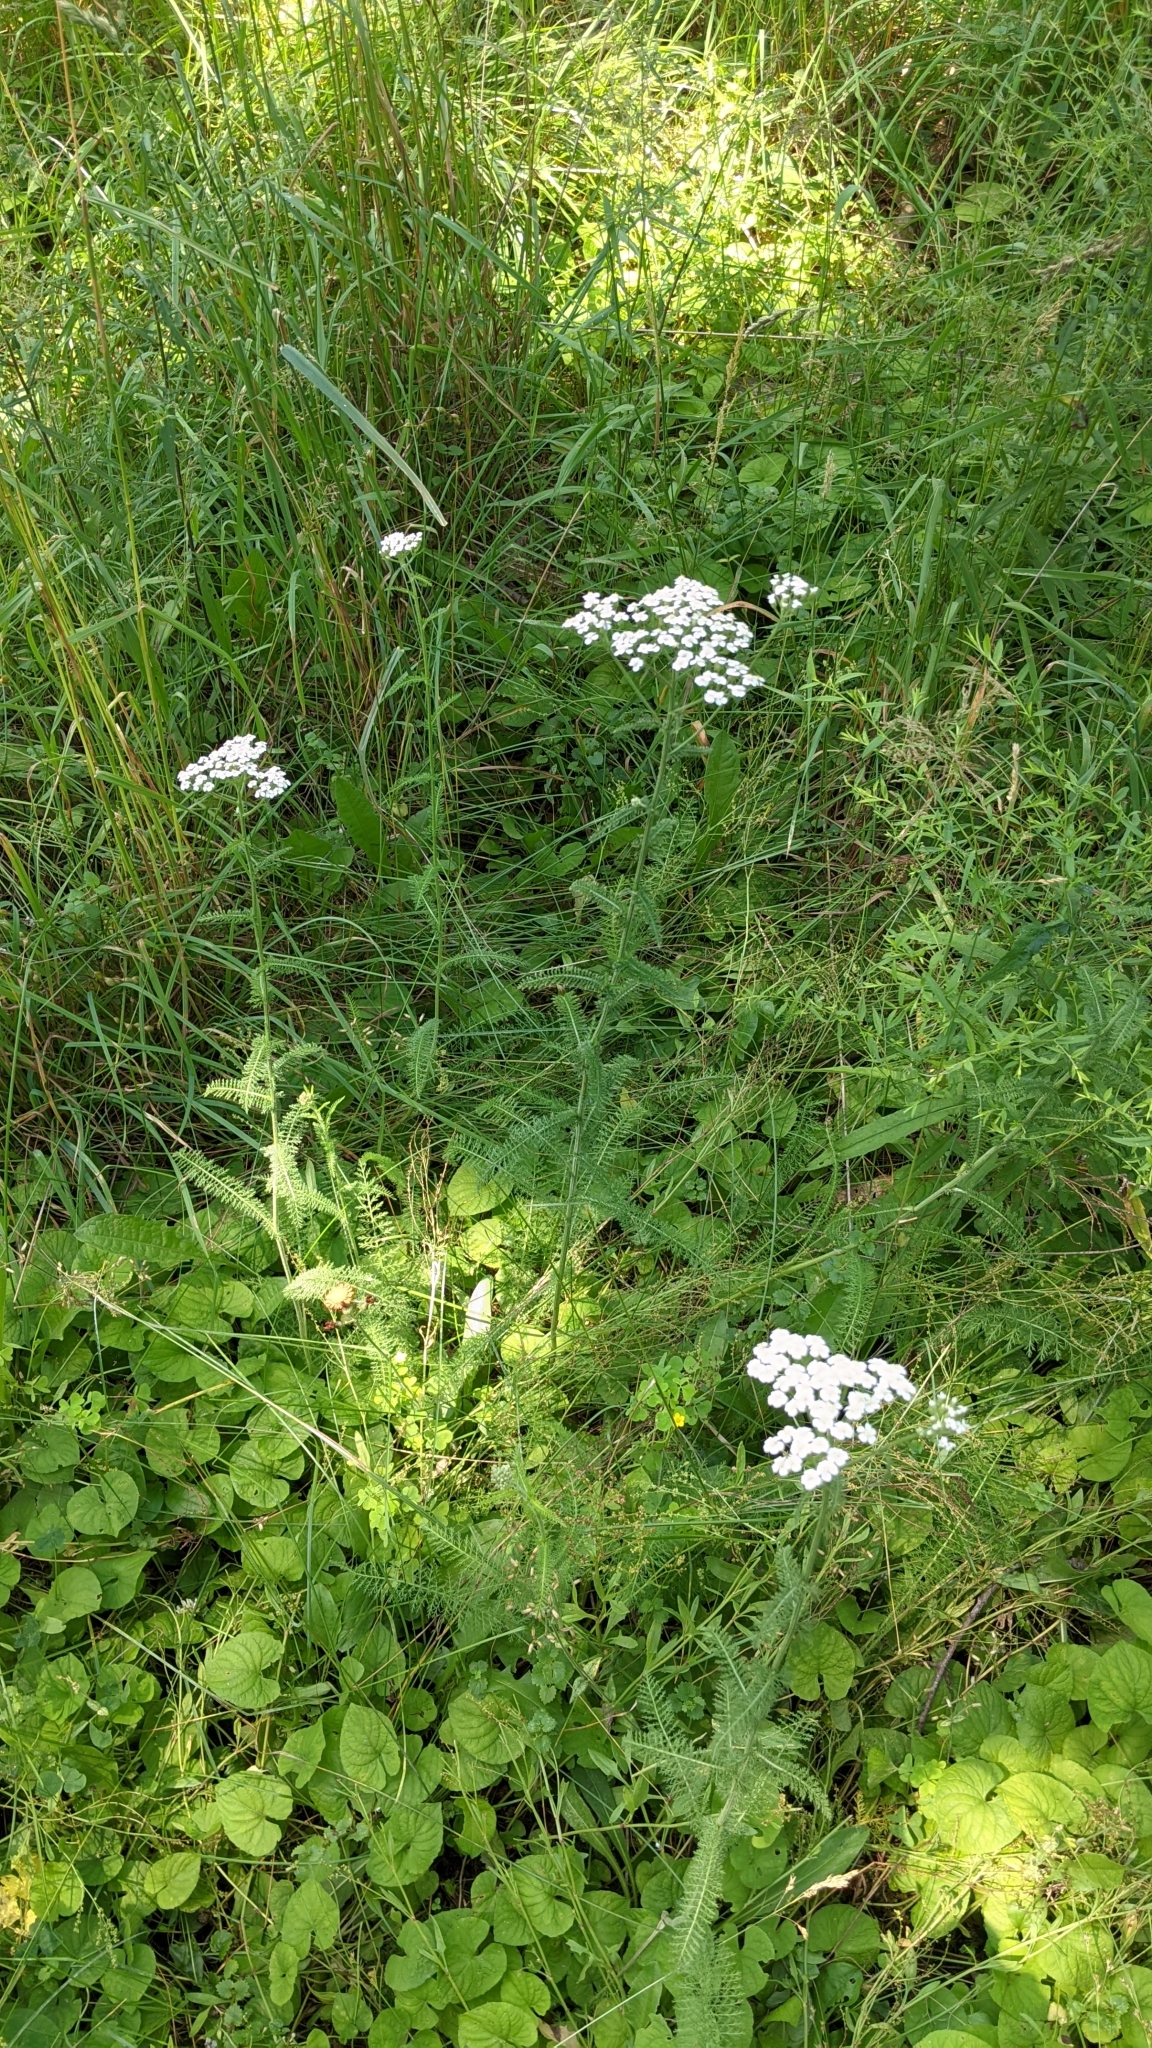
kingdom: Plantae
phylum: Tracheophyta
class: Magnoliopsida
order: Asterales
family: Asteraceae
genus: Achillea
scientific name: Achillea millefolium
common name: Yarrow
